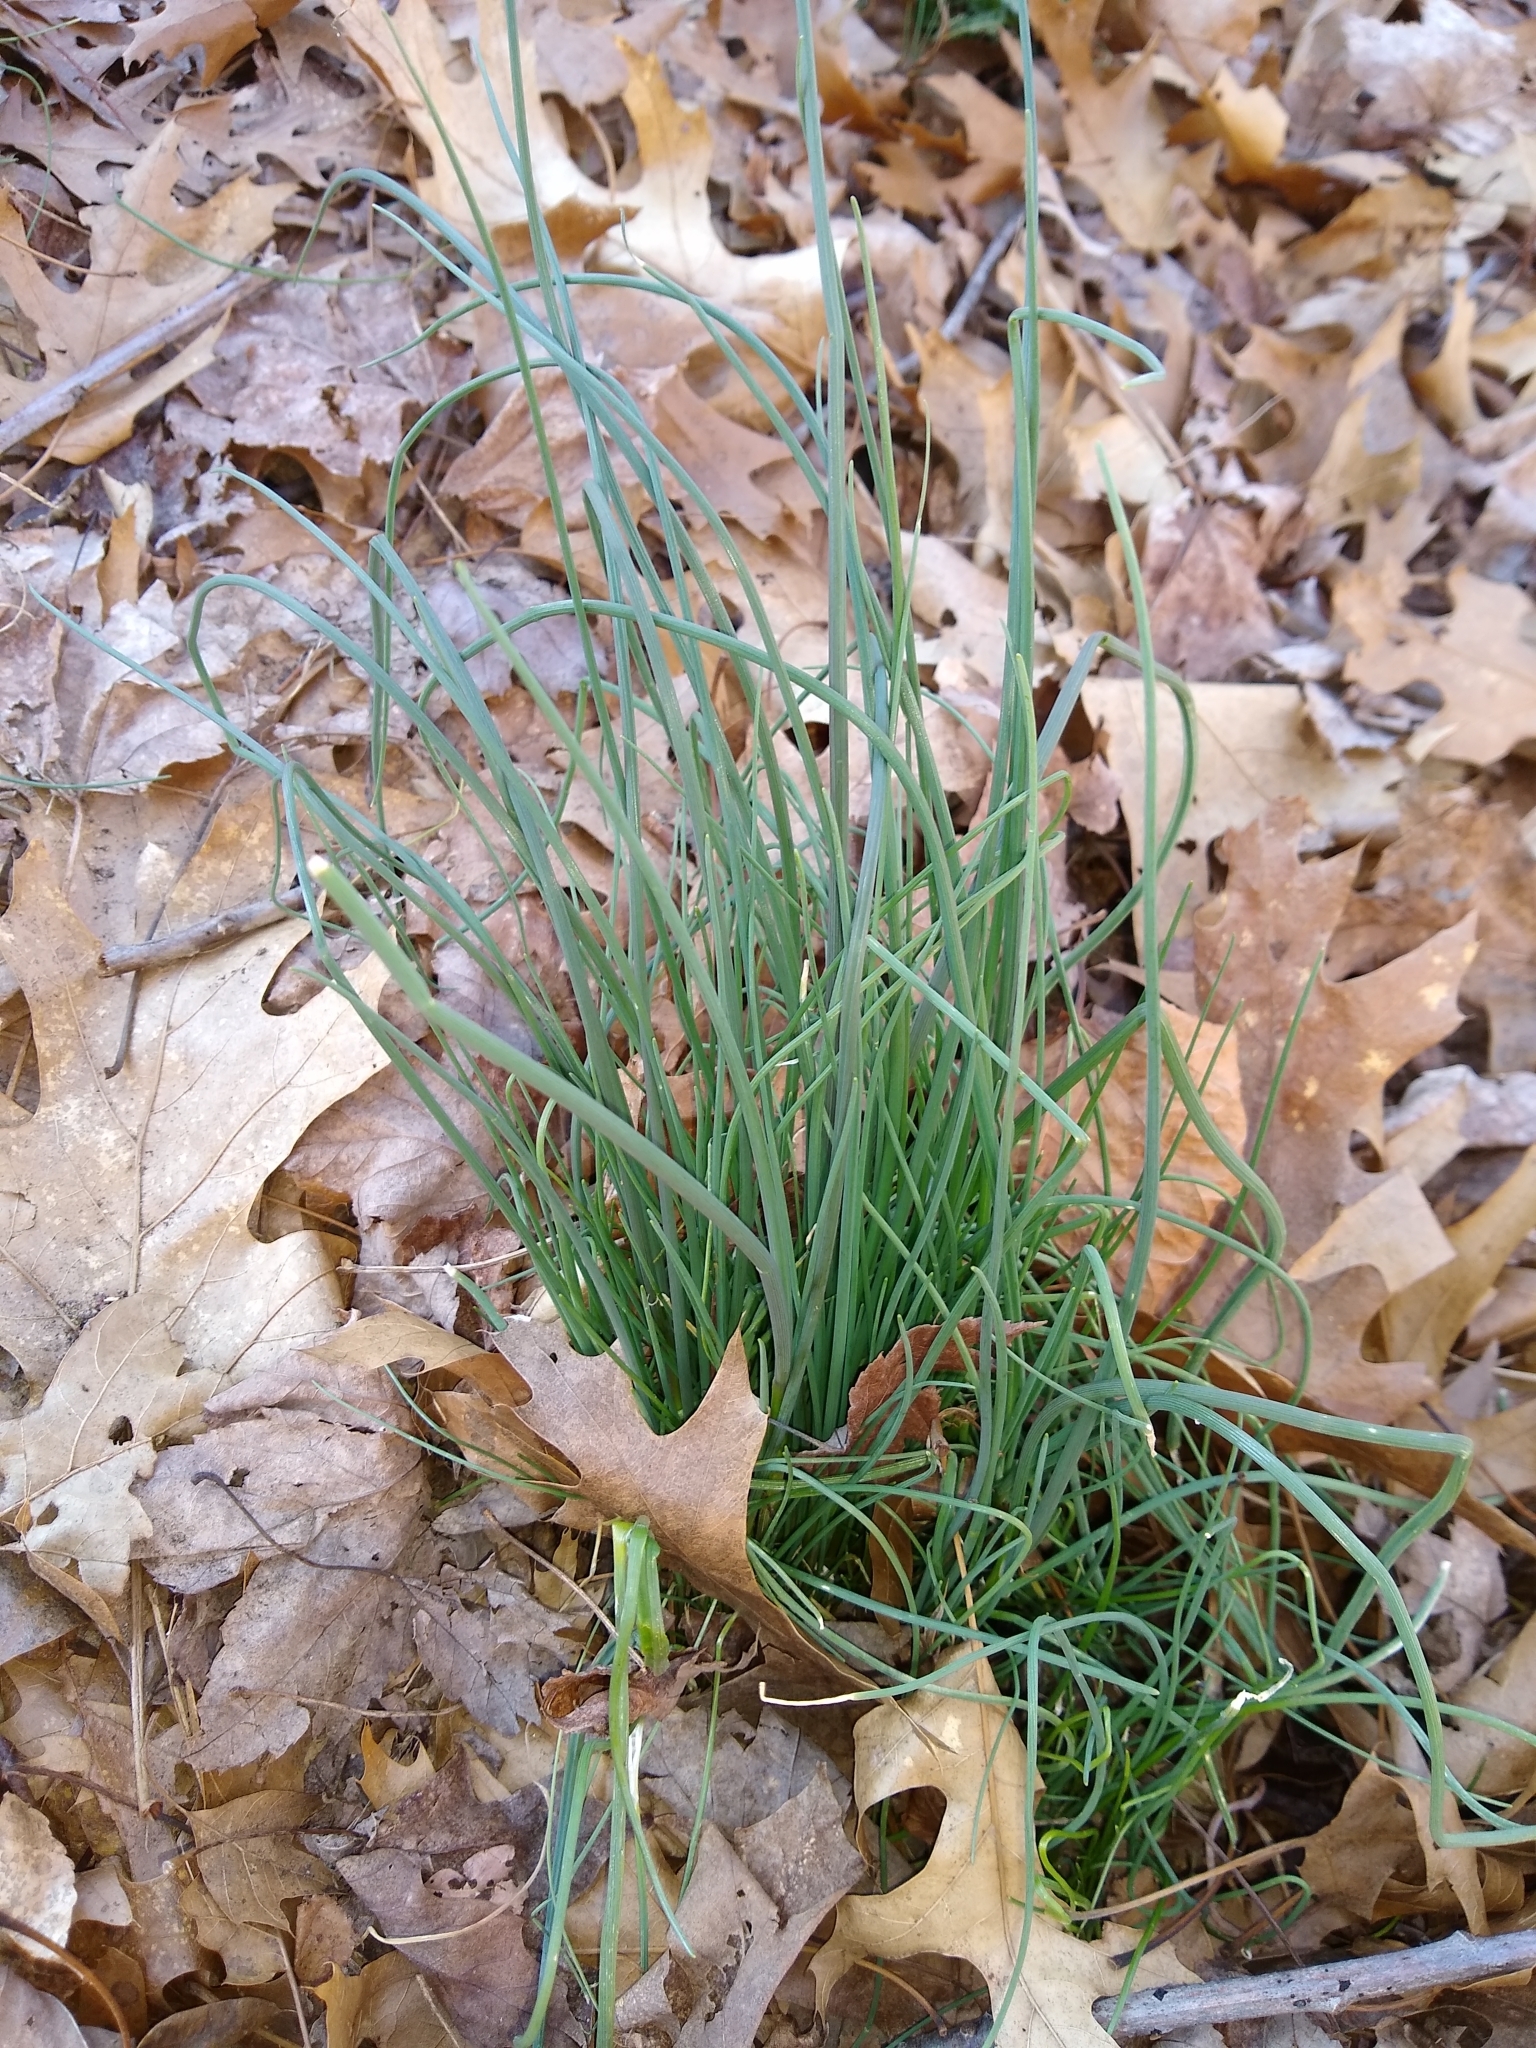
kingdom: Plantae
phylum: Tracheophyta
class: Liliopsida
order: Asparagales
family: Amaryllidaceae
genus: Allium
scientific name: Allium vineale
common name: Crow garlic
